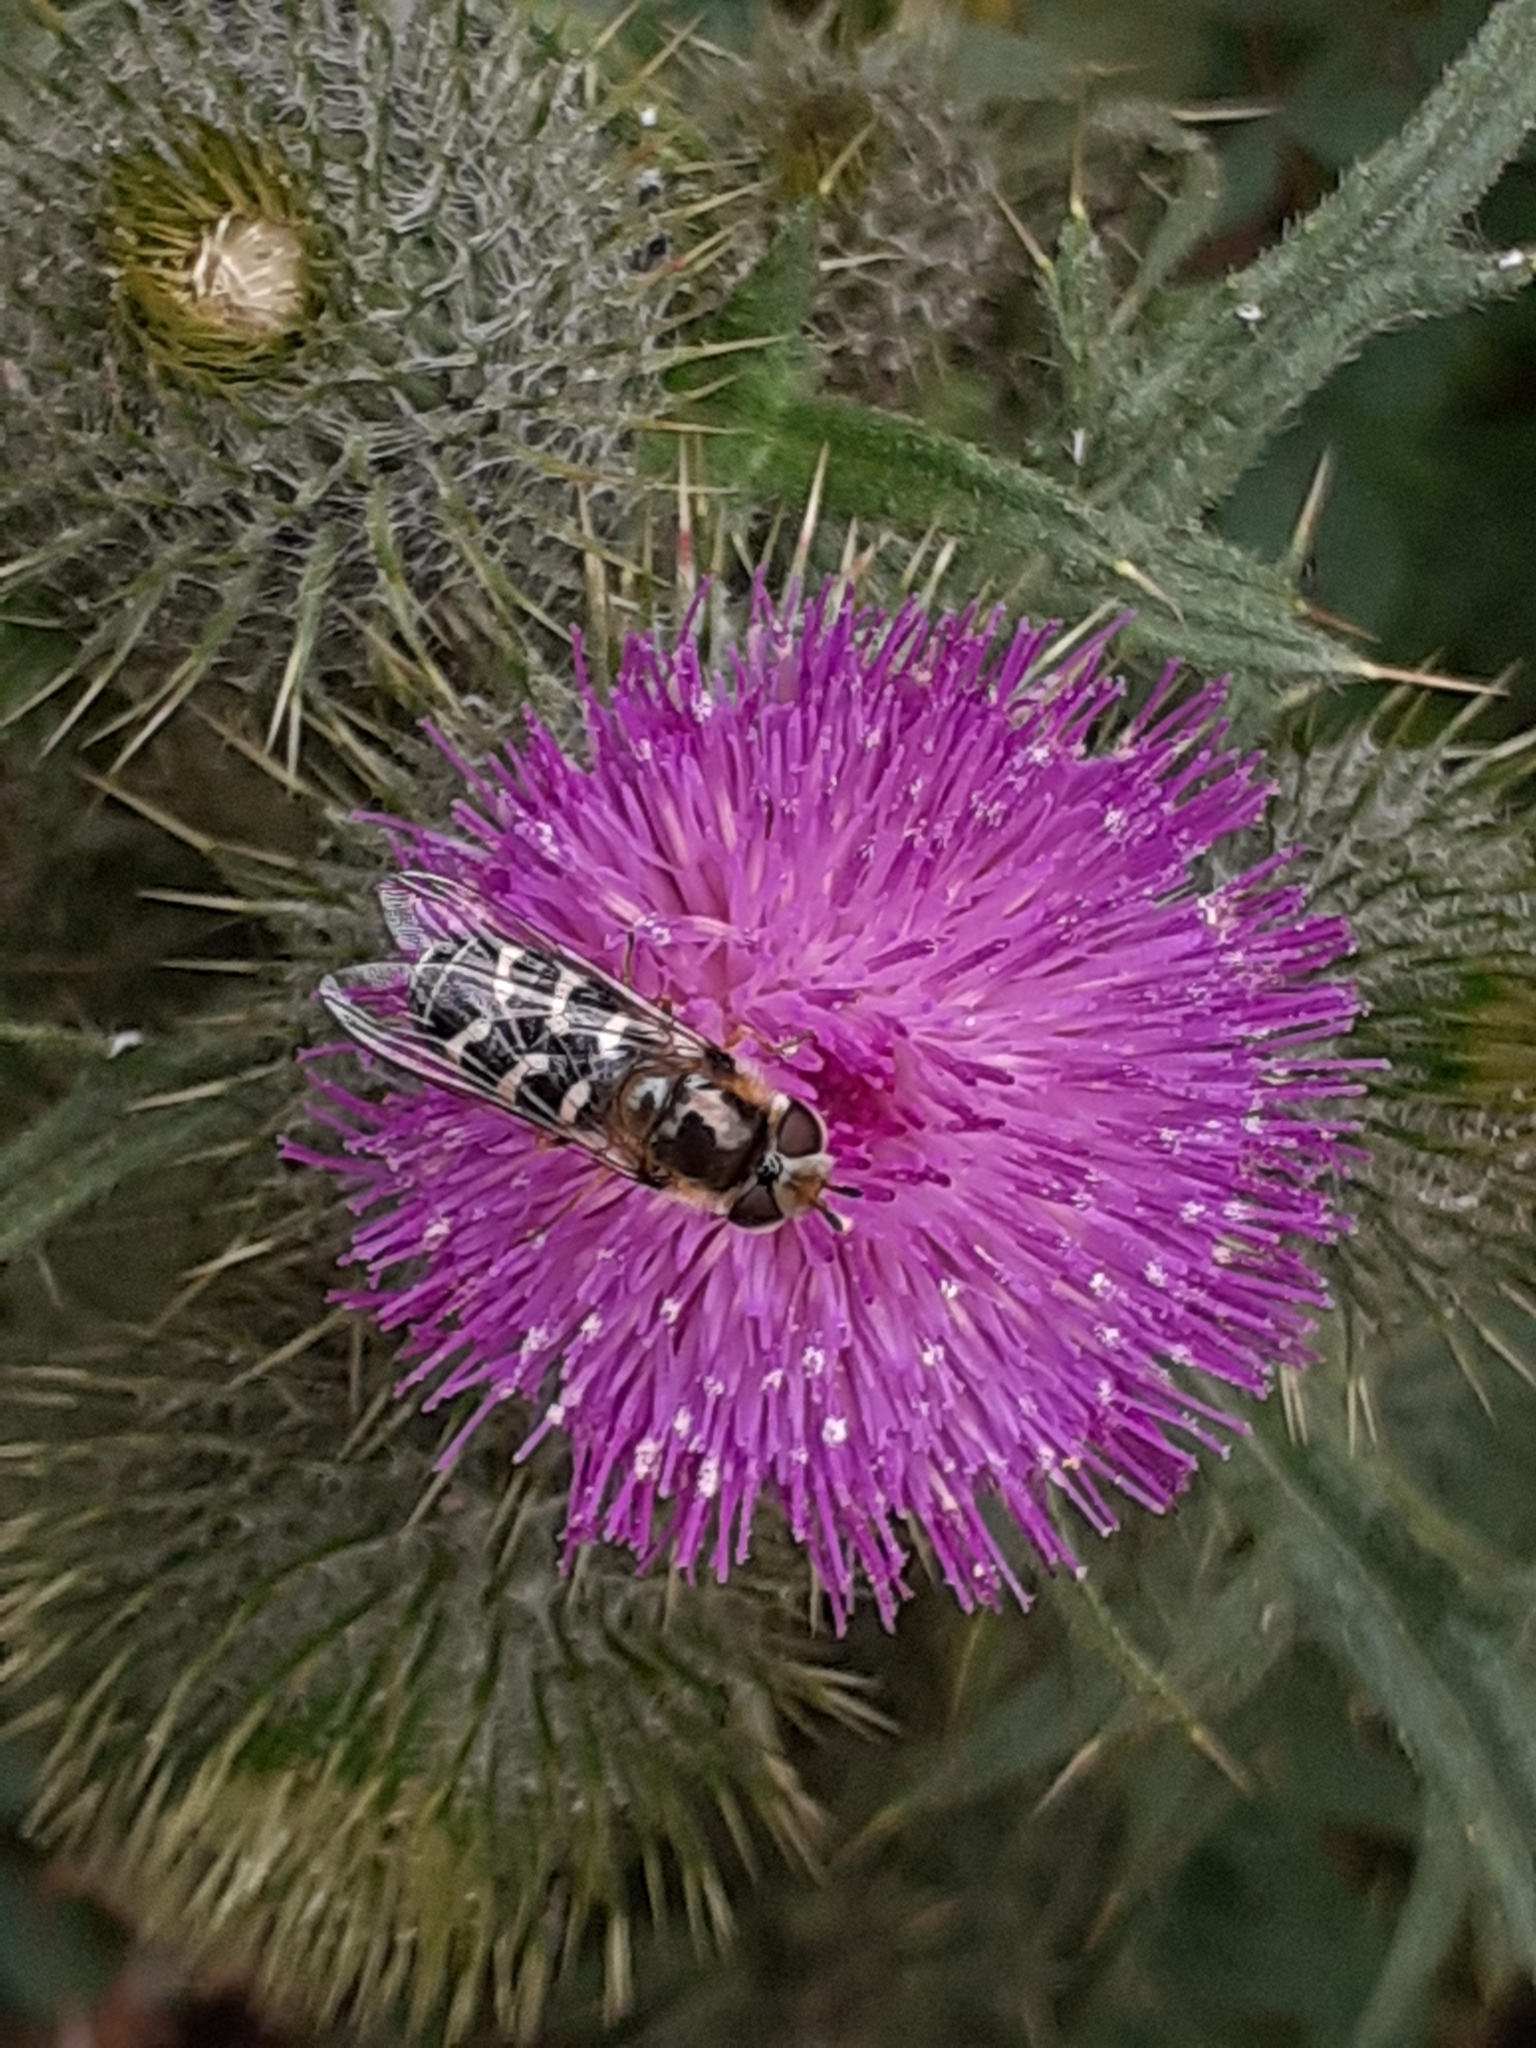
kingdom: Animalia
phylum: Arthropoda
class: Insecta
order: Diptera
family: Syrphidae
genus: Scaeva
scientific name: Scaeva pyrastri
